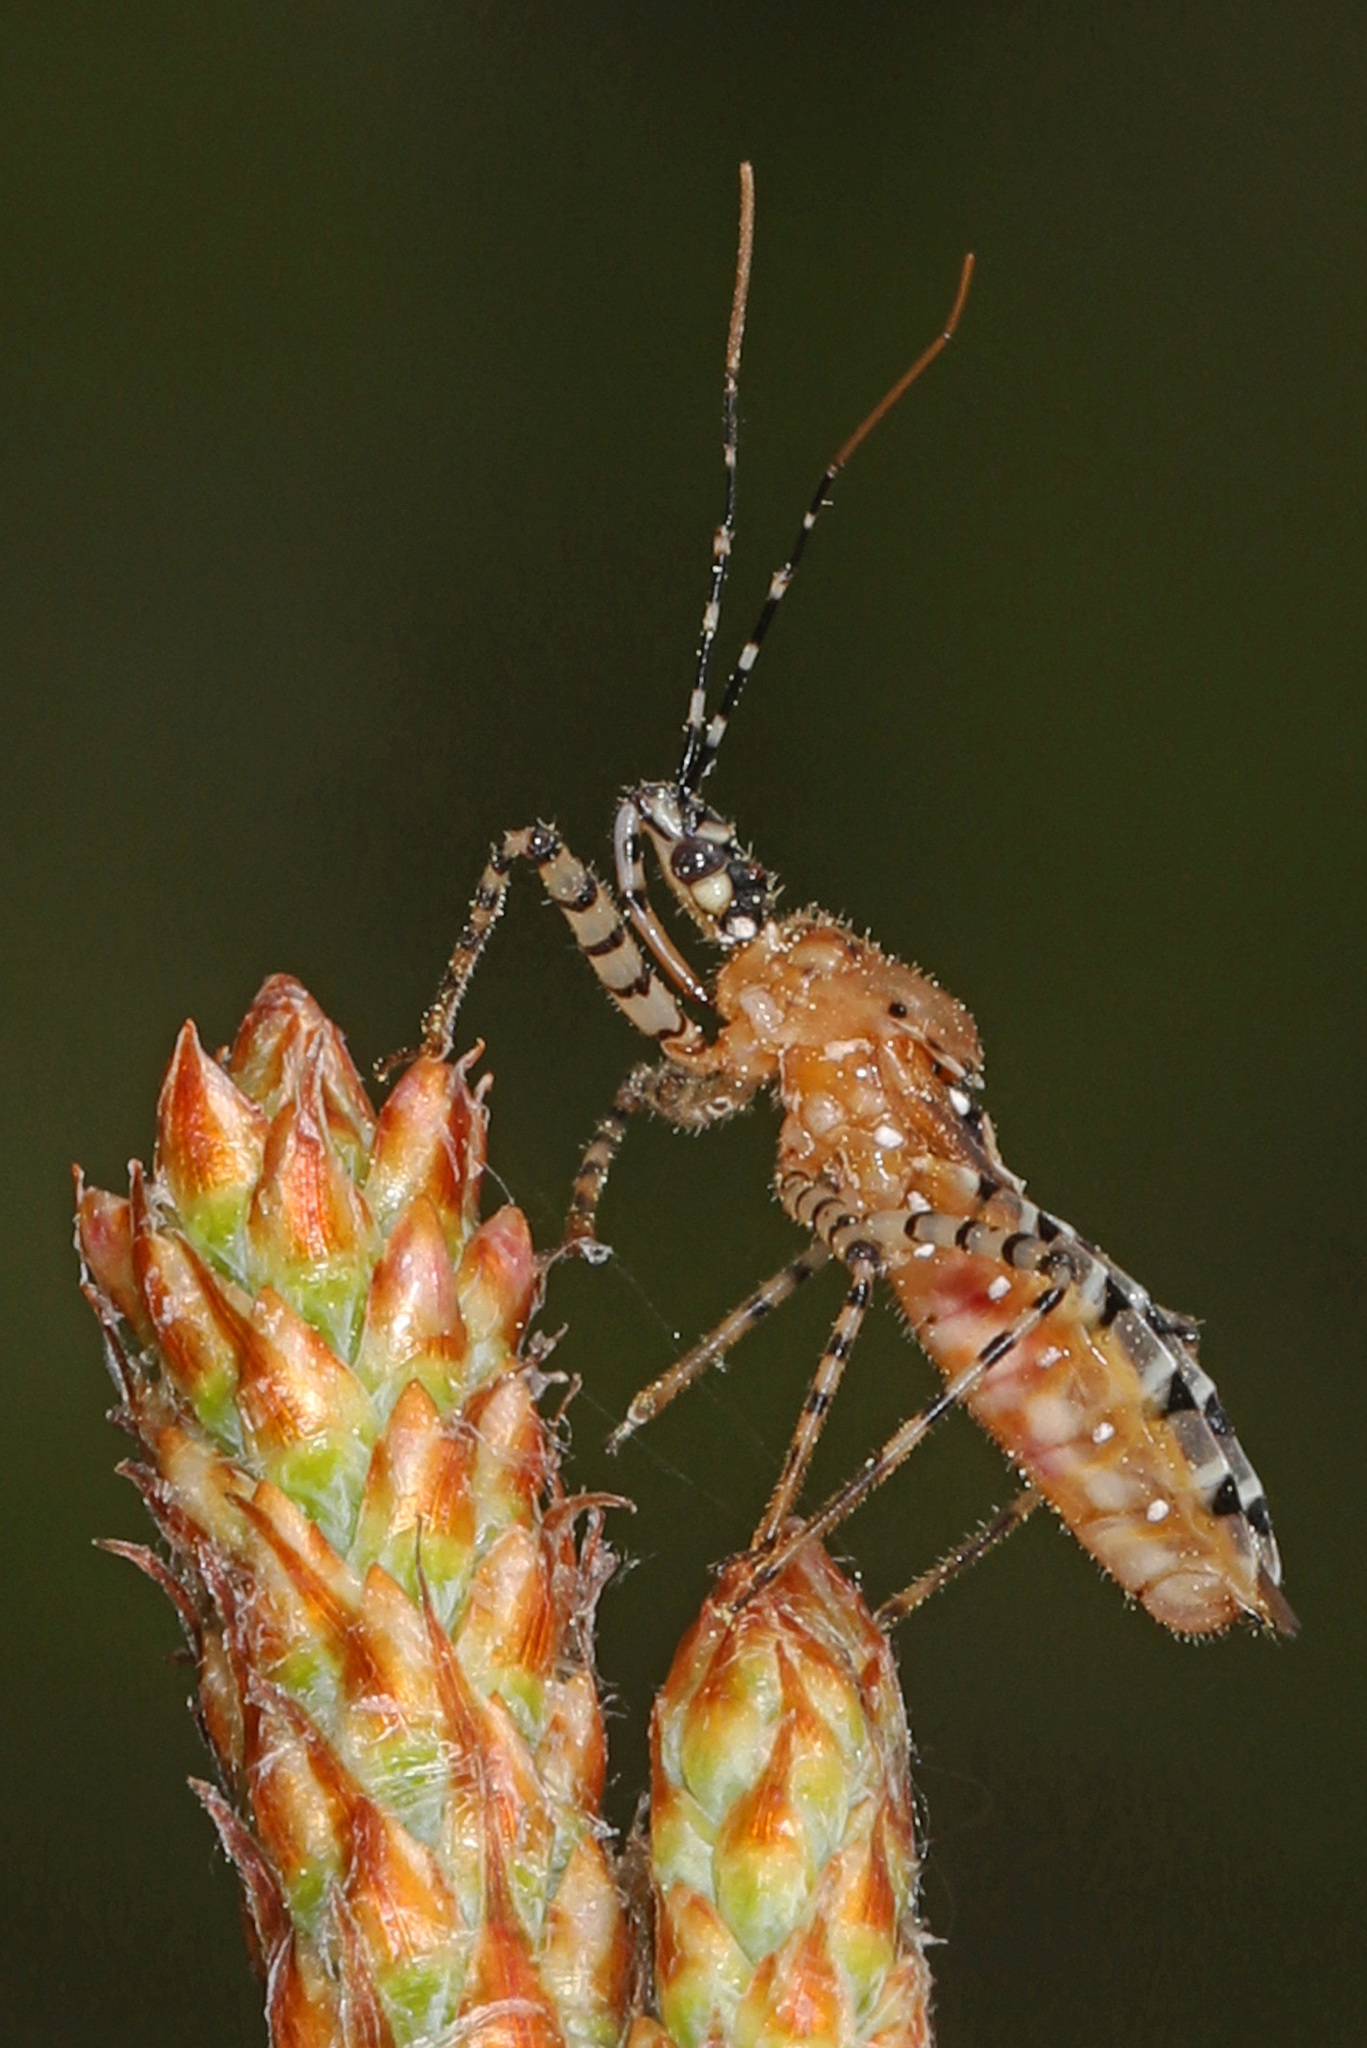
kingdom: Animalia
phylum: Arthropoda
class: Insecta
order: Hemiptera
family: Reduviidae
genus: Pselliopus
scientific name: Pselliopus cinctus
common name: Ringed assassin bug
